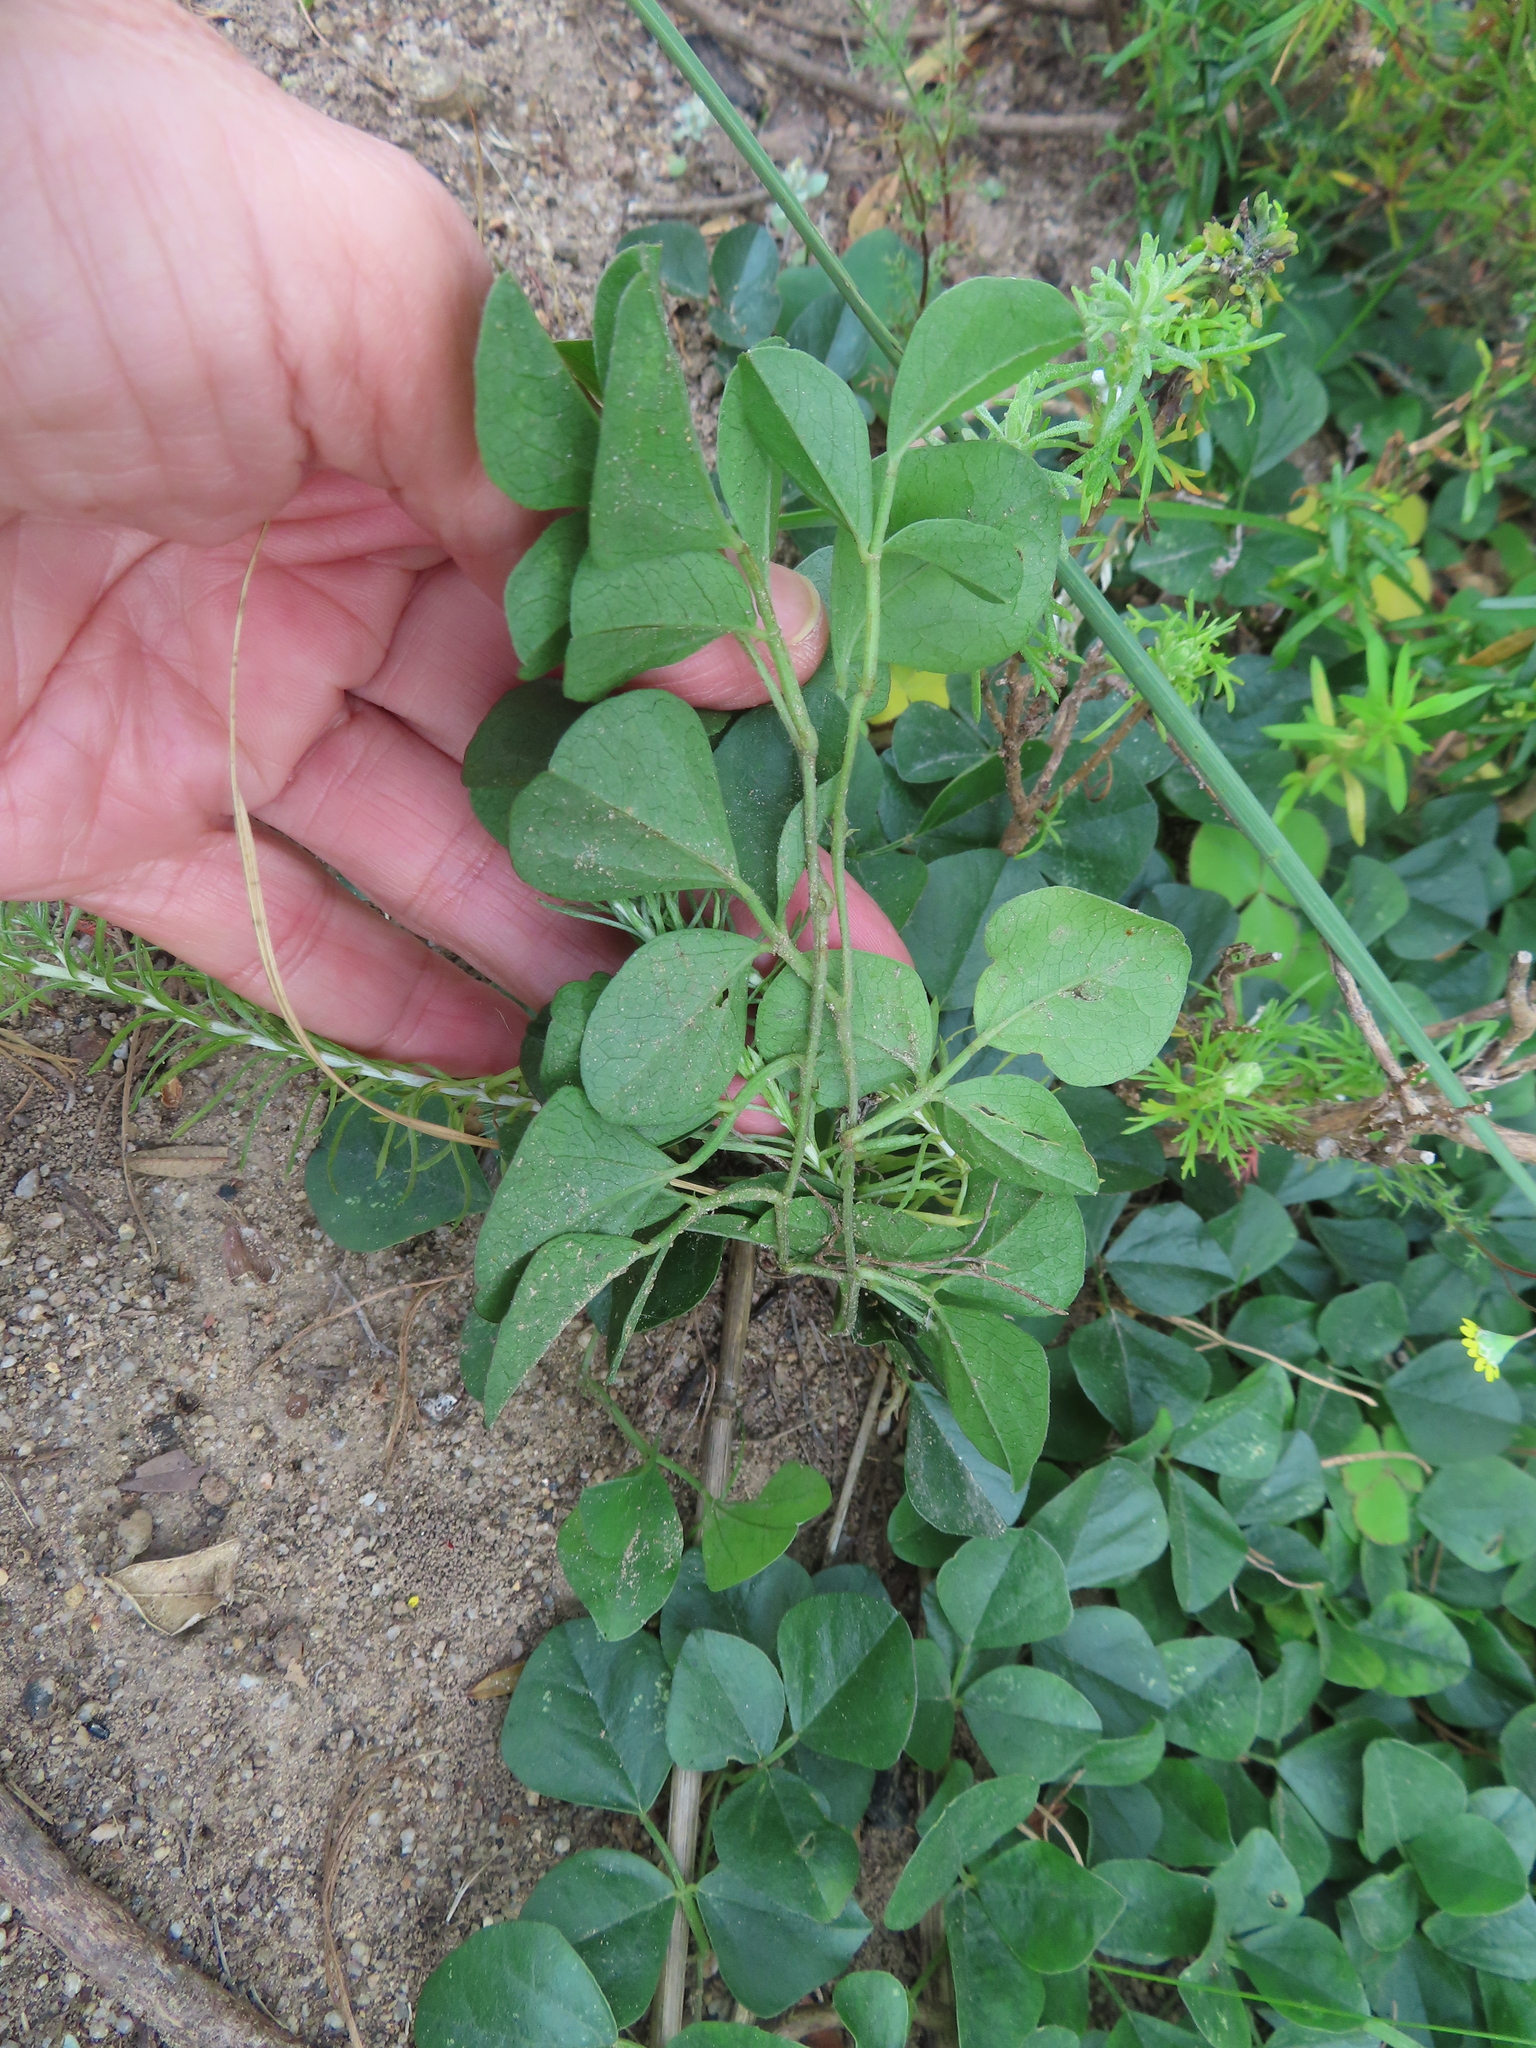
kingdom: Plantae
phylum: Tracheophyta
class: Magnoliopsida
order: Fabales
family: Fabaceae
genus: Dolichos
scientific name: Dolichos decumbens
